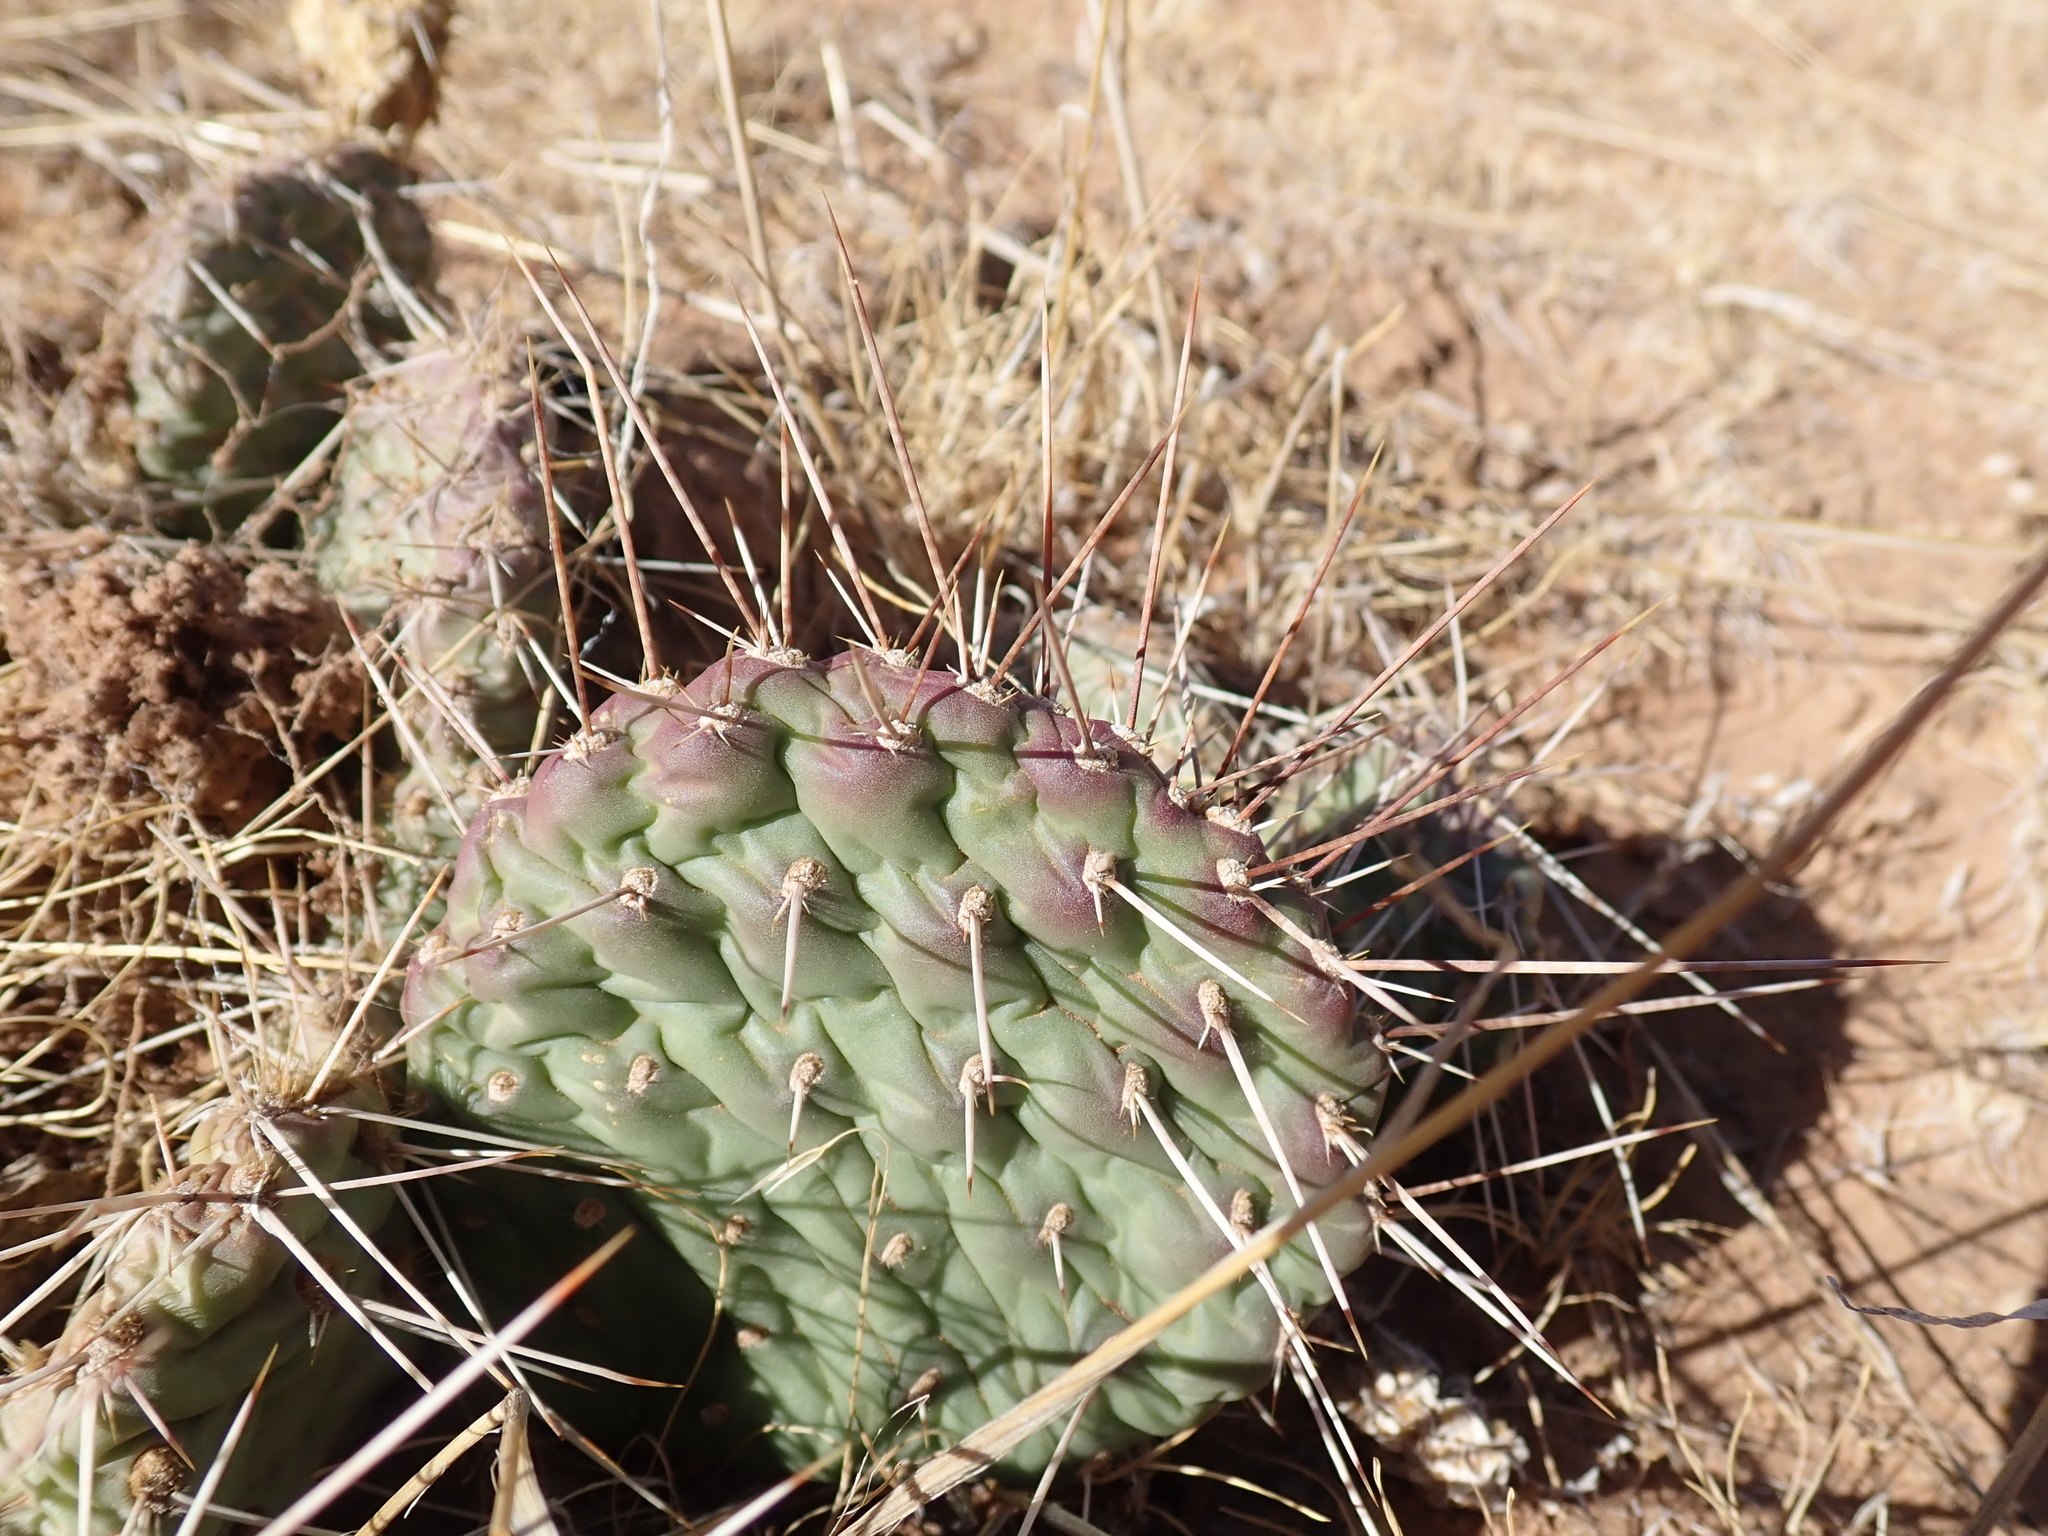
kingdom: Plantae
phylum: Tracheophyta
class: Magnoliopsida
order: Caryophyllales
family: Cactaceae
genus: Opuntia
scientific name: Opuntia polyacantha
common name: Plains prickly-pear
